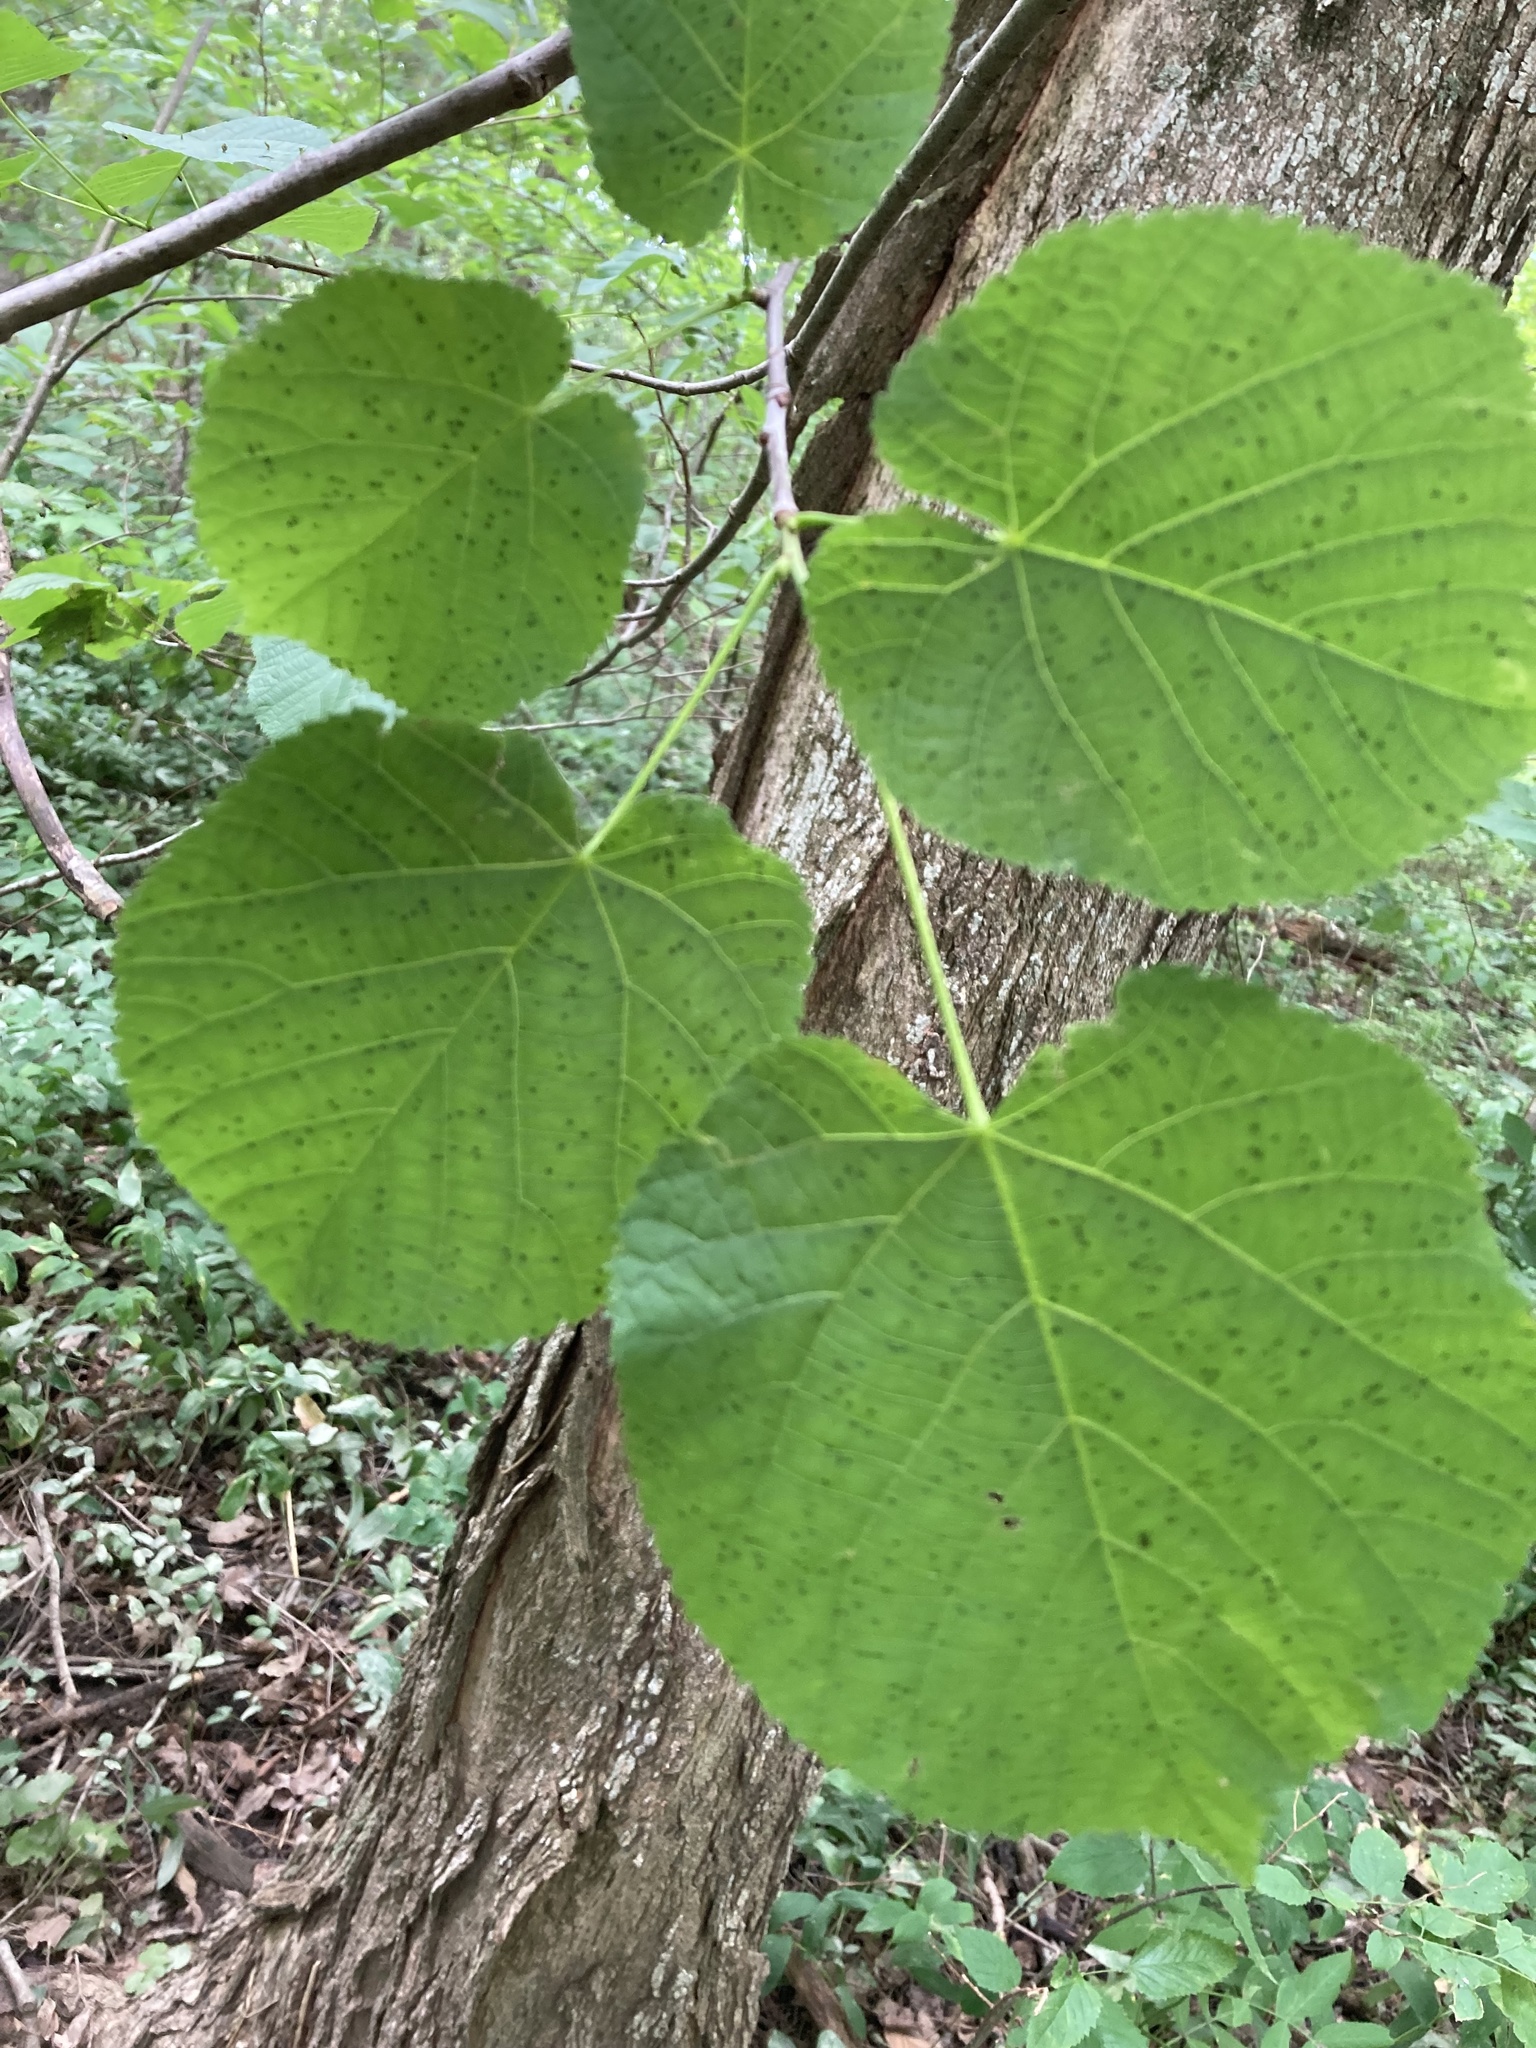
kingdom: Plantae
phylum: Tracheophyta
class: Magnoliopsida
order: Malvales
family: Malvaceae
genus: Tilia
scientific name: Tilia americana
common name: Basswood
